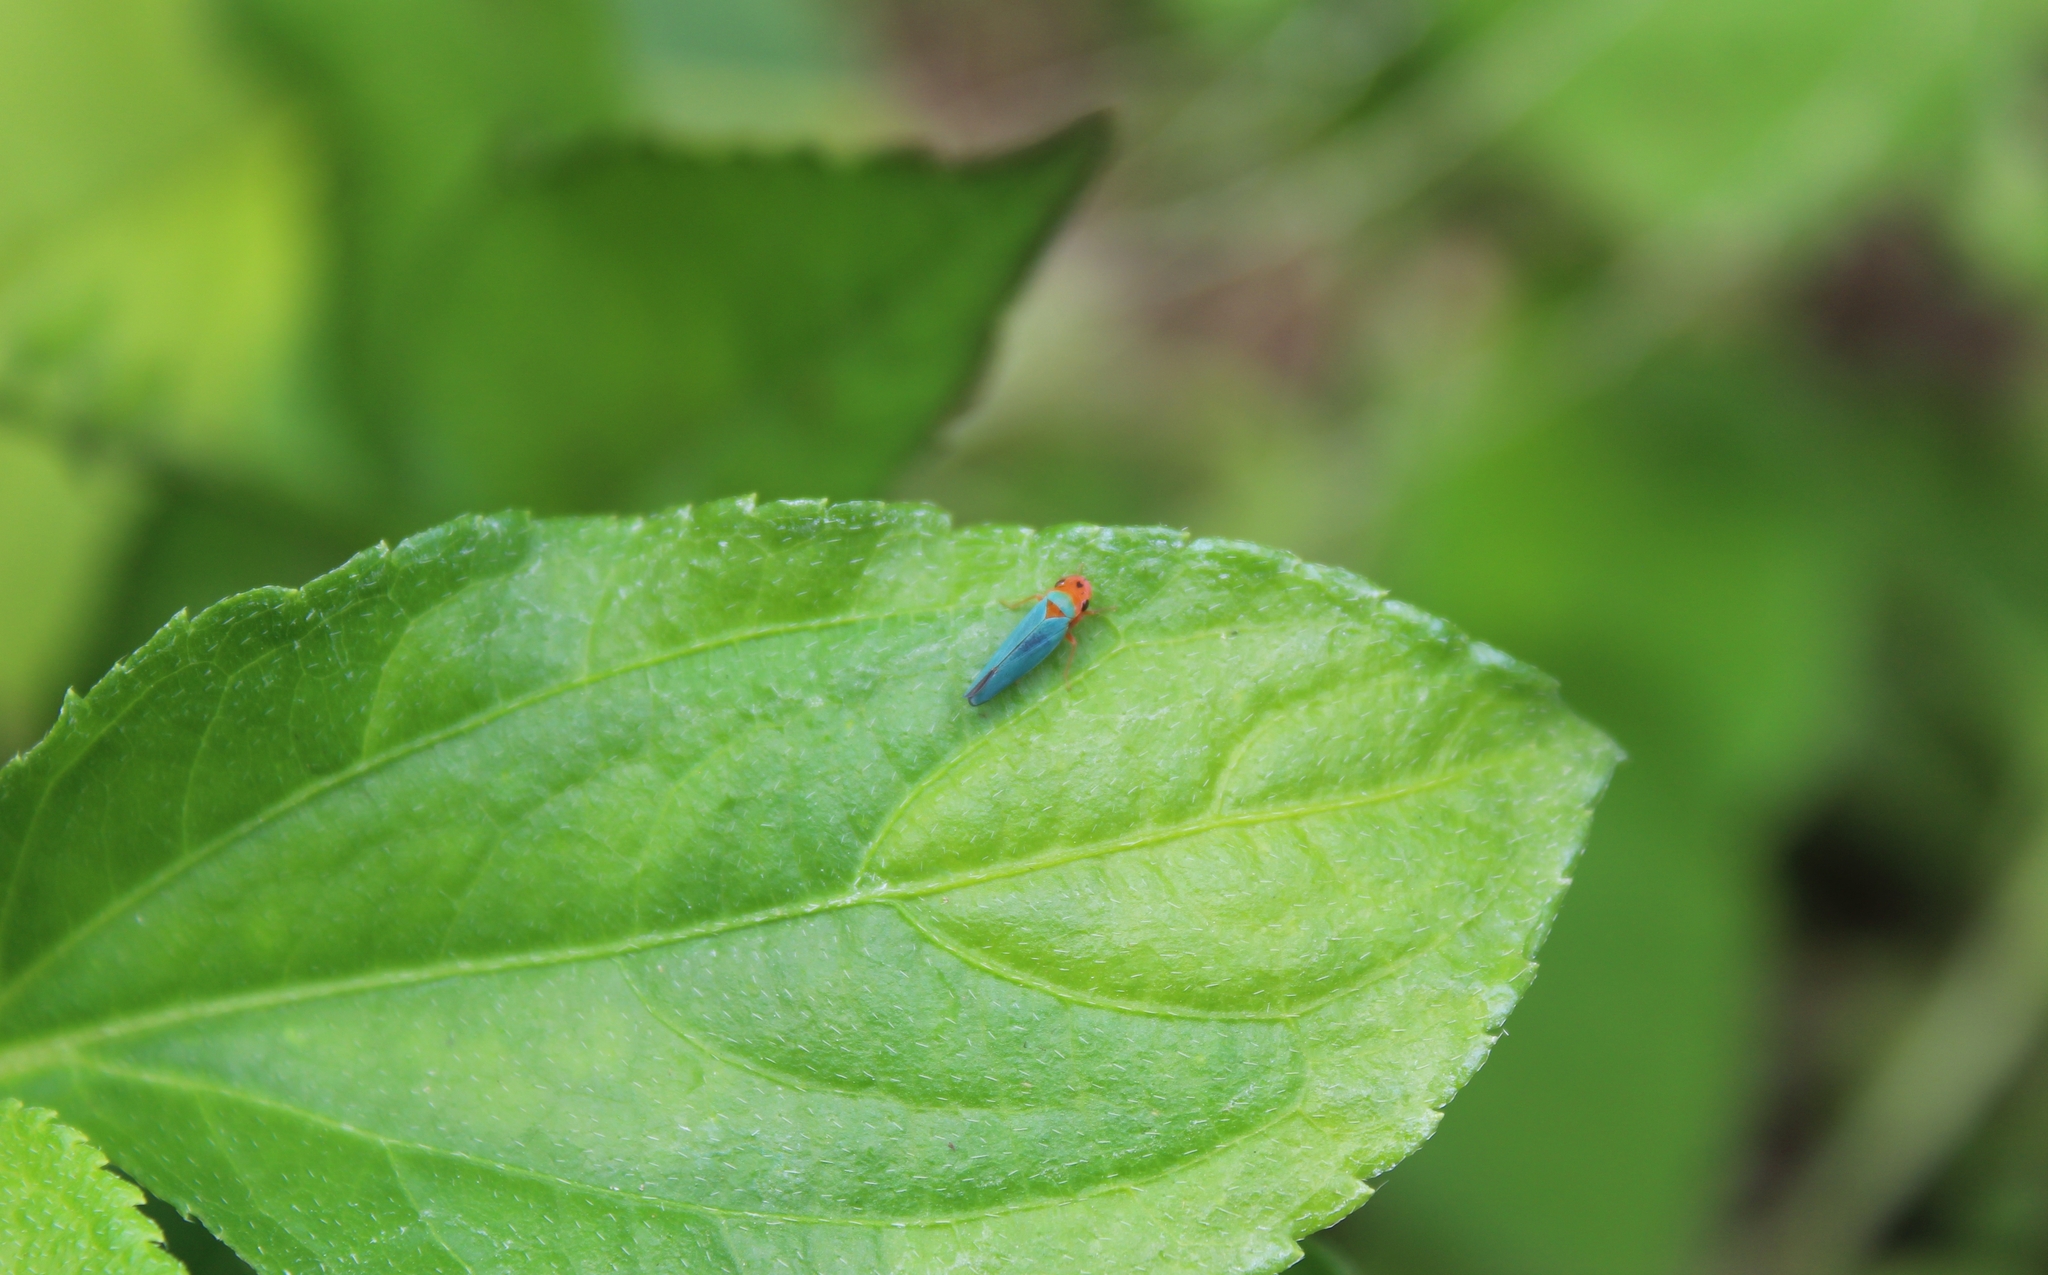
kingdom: Animalia
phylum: Arthropoda
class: Insecta
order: Hemiptera
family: Cicadellidae
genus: Macunolla
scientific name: Macunolla ventralis
